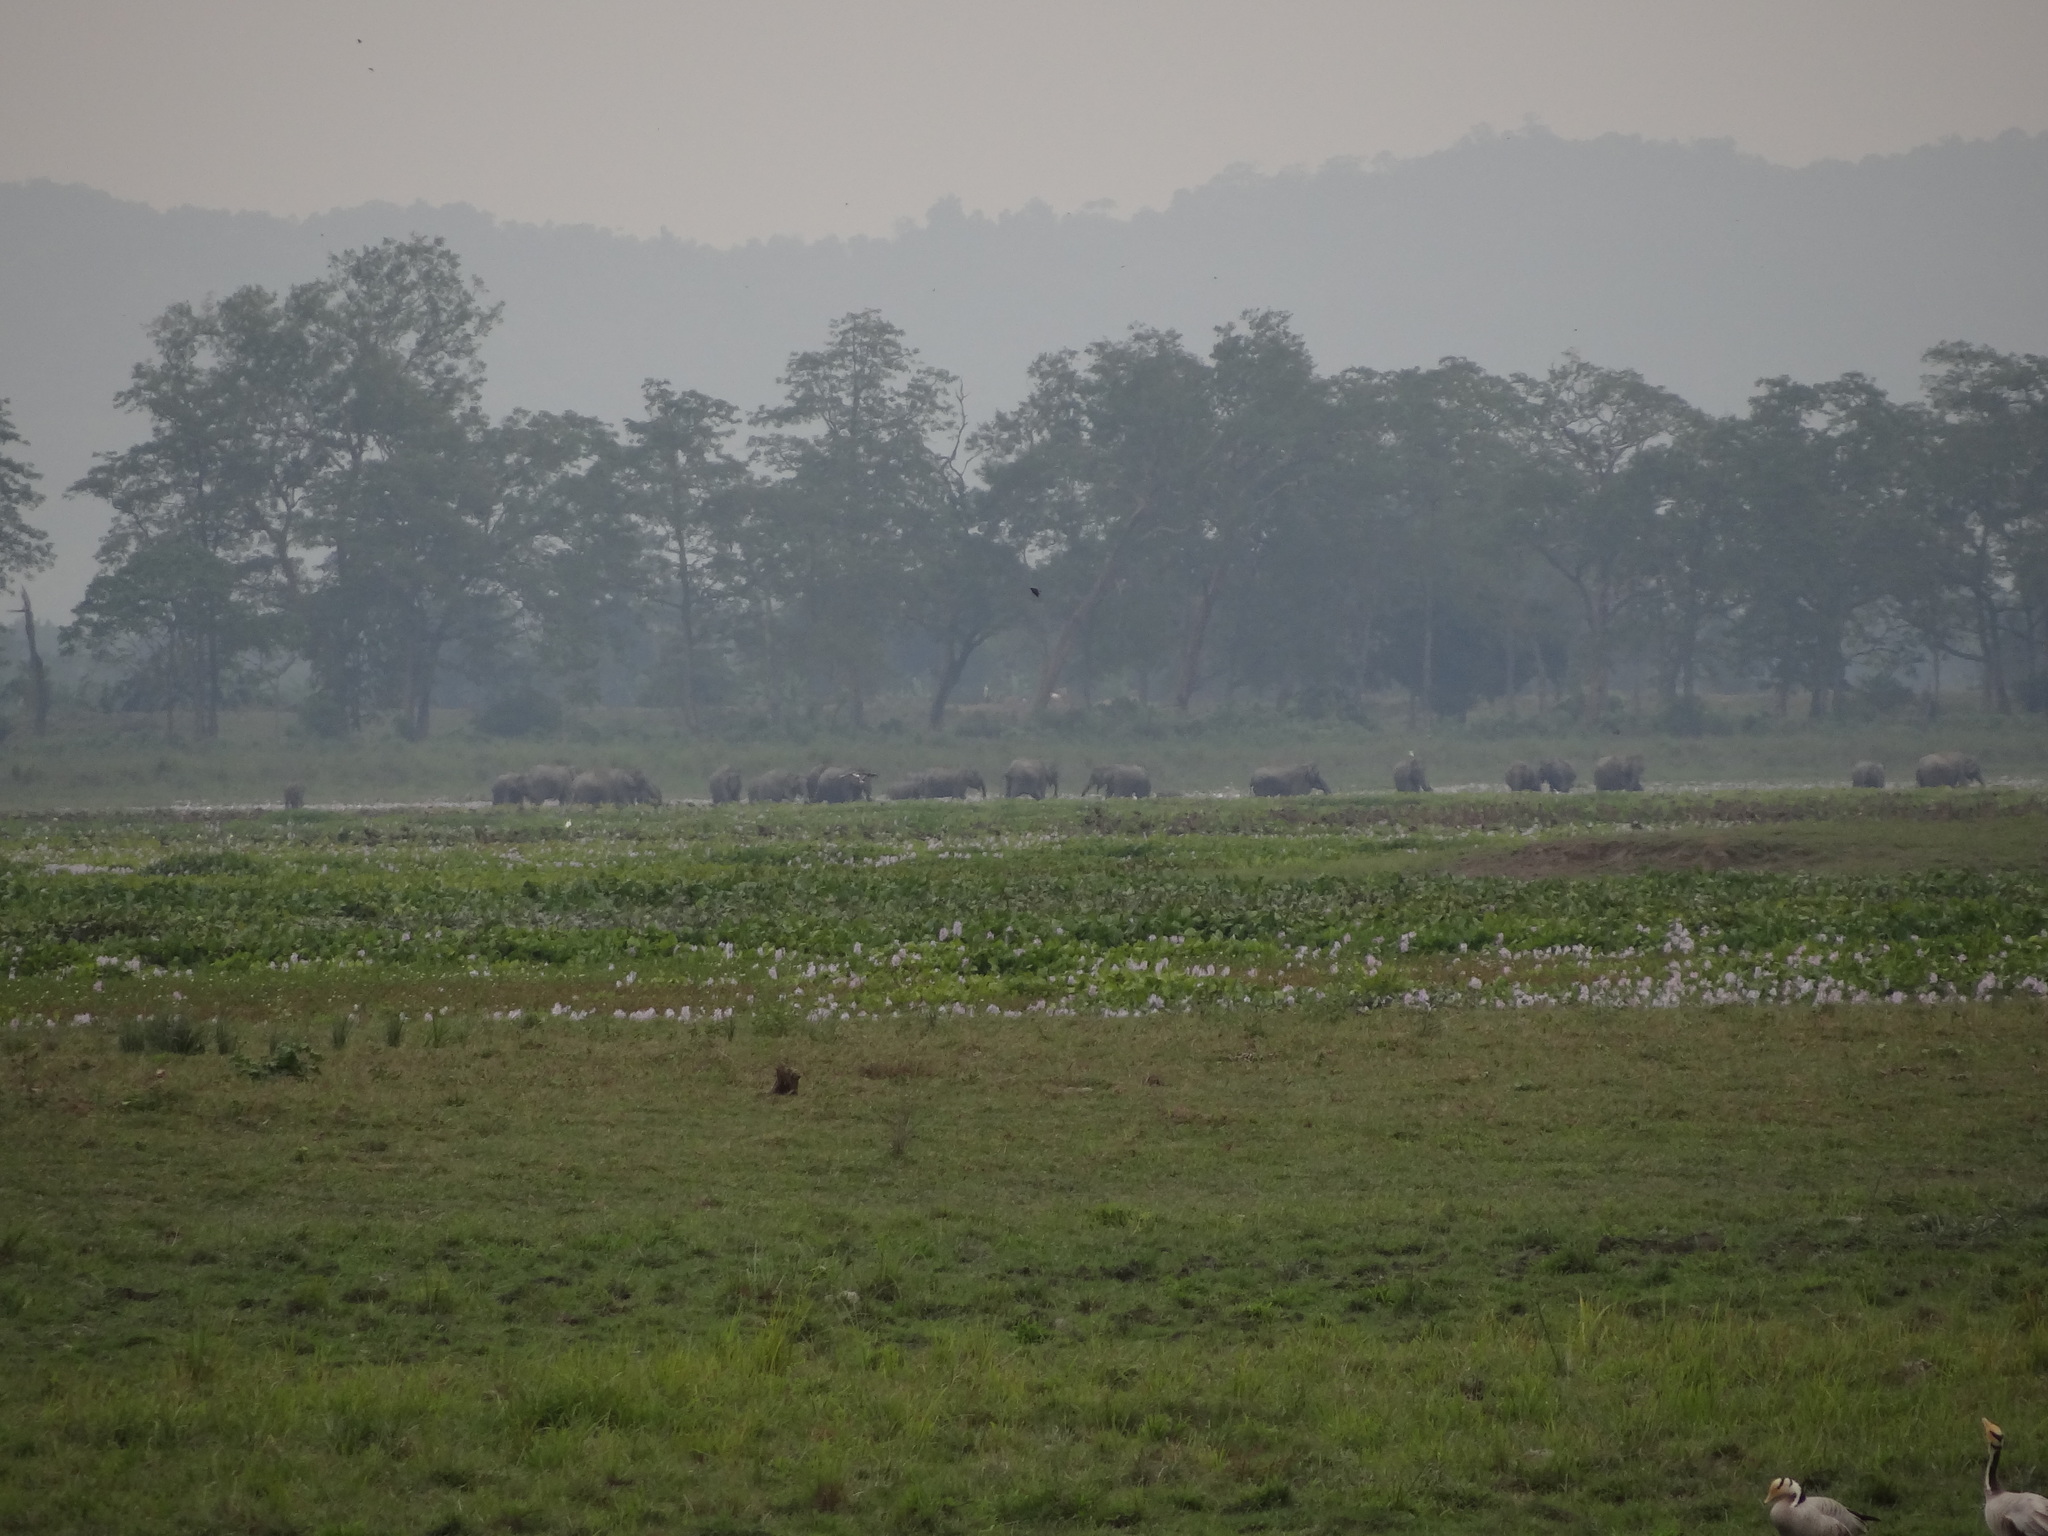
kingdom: Animalia
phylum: Chordata
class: Mammalia
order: Proboscidea
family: Elephantidae
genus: Elephas
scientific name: Elephas maximus
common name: Asian elephant
